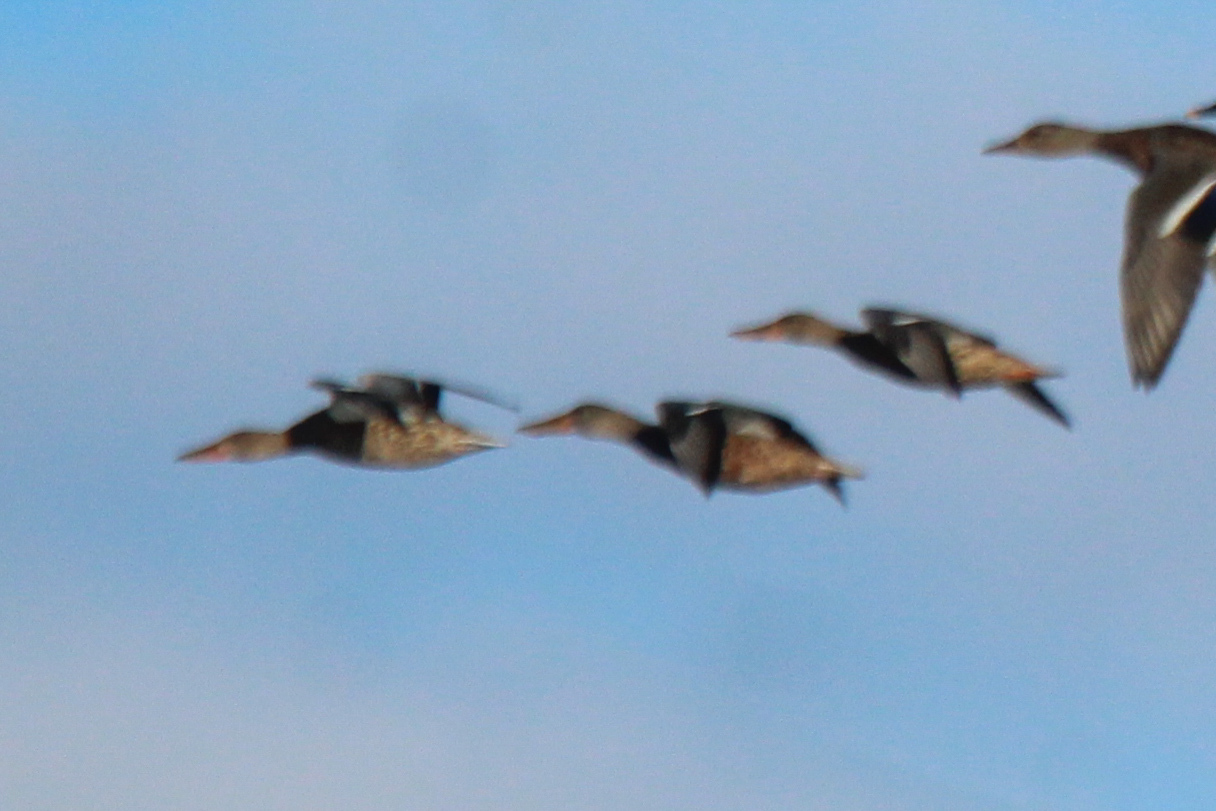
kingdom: Animalia
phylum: Chordata
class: Aves
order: Anseriformes
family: Anatidae
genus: Spatula
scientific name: Spatula clypeata
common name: Northern shoveler
